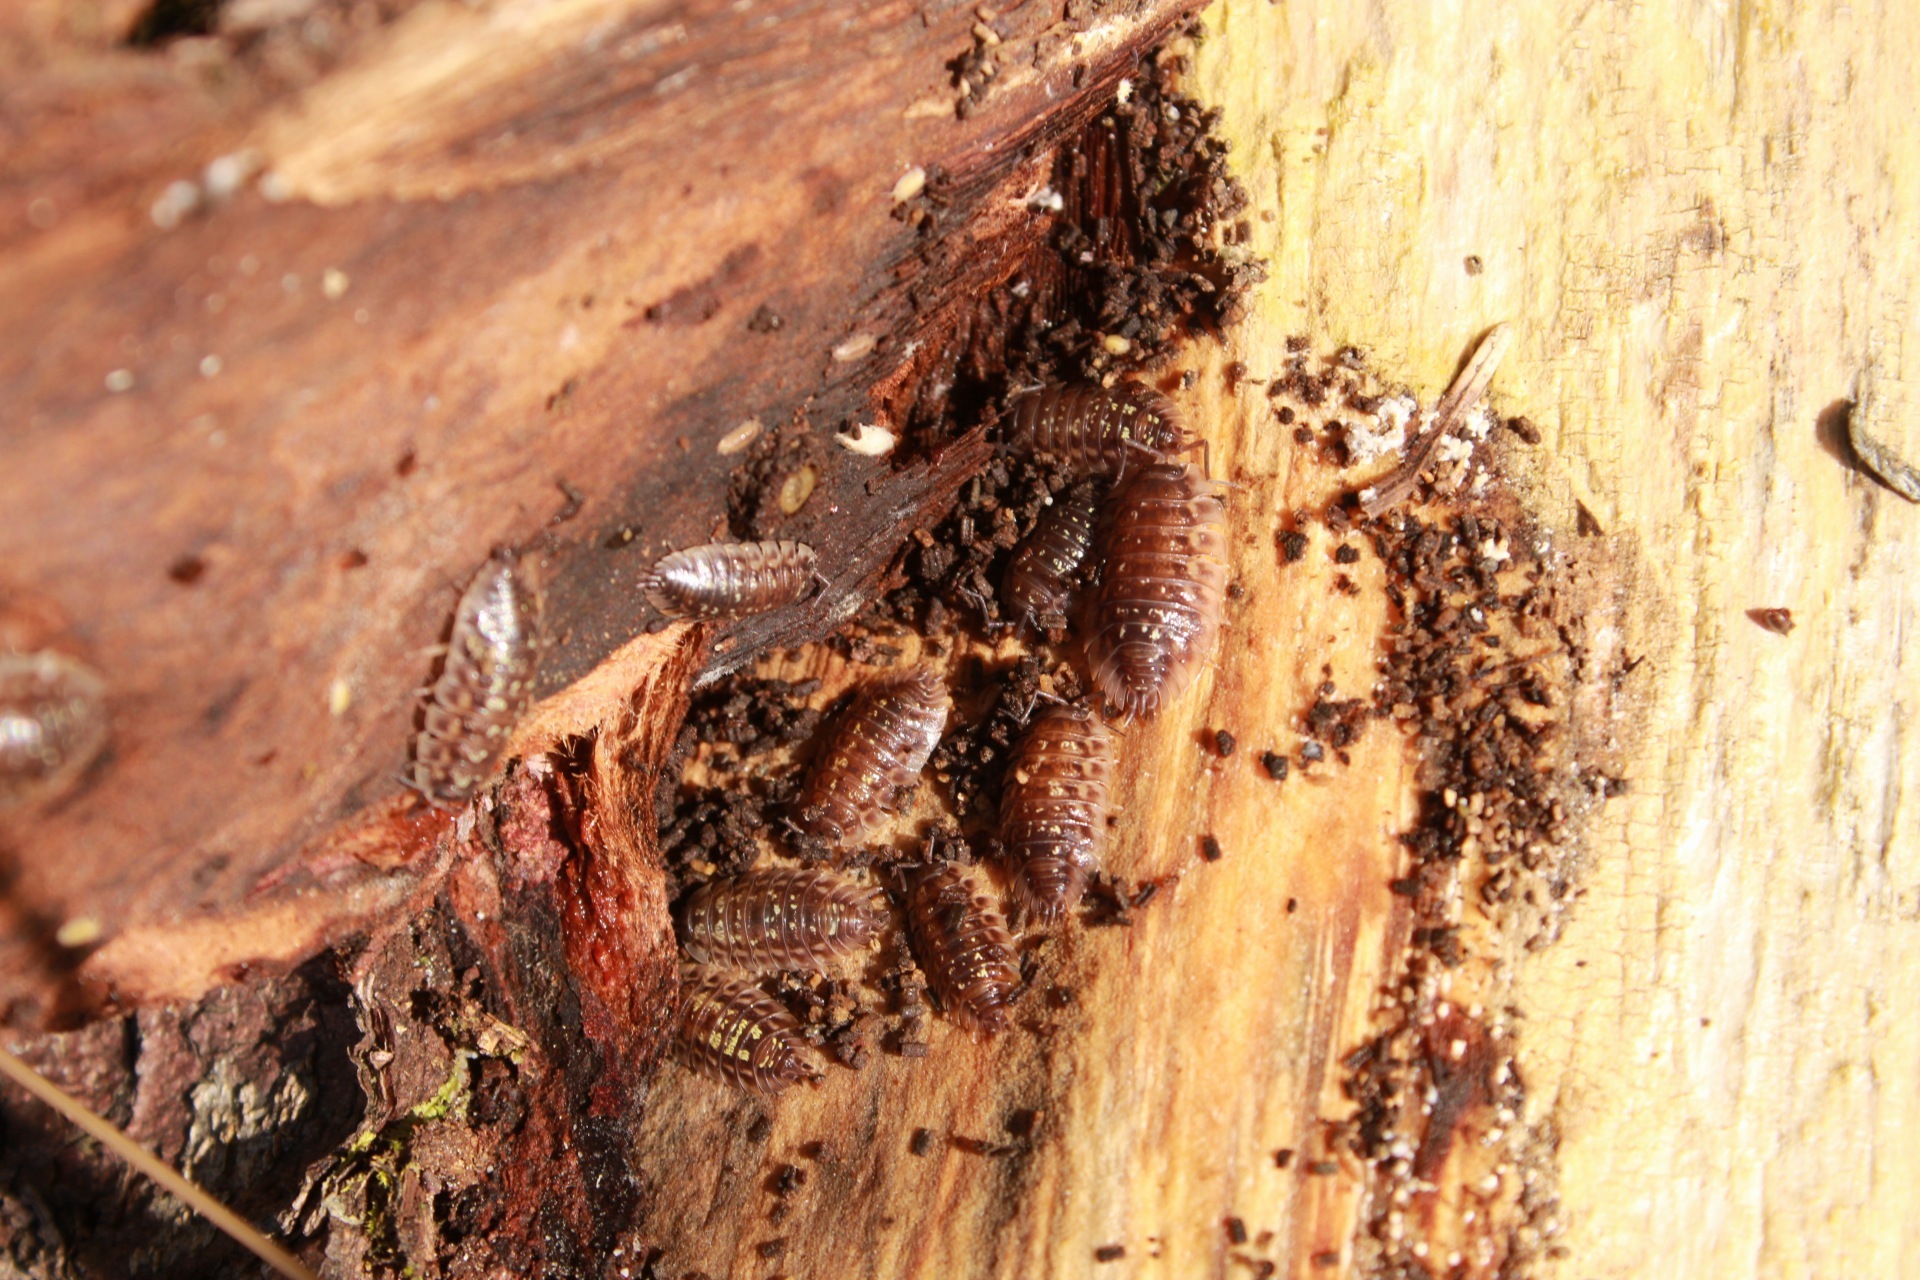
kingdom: Animalia
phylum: Arthropoda
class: Malacostraca
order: Isopoda
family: Oniscidae
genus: Oniscus
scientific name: Oniscus asellus
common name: Common shiny woodlouse
